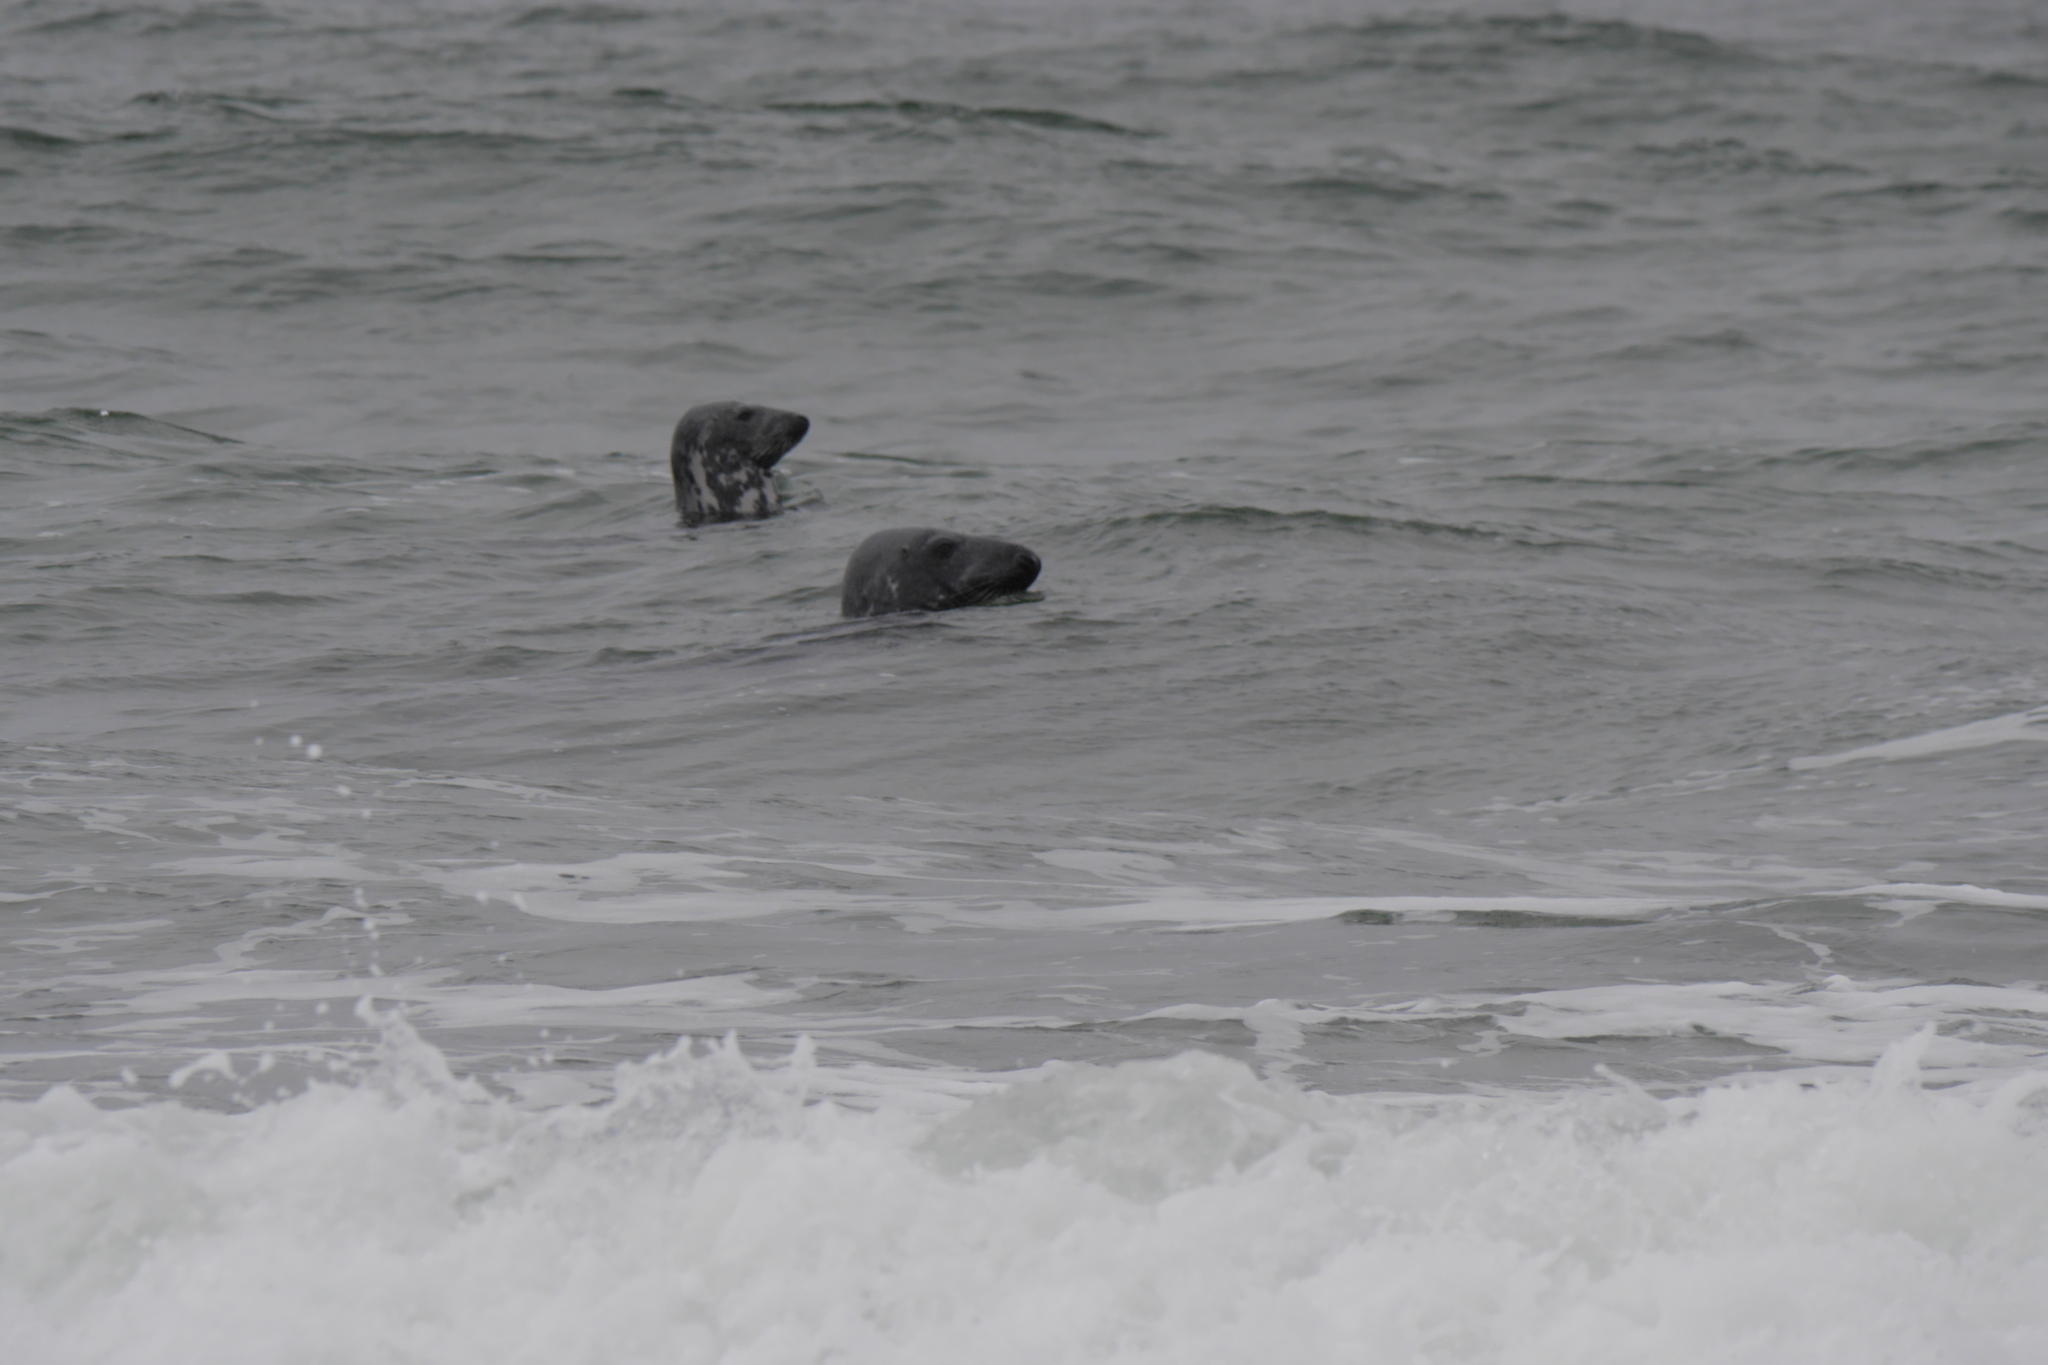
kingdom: Animalia
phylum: Chordata
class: Mammalia
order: Carnivora
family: Phocidae
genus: Halichoerus
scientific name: Halichoerus grypus
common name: Grey seal
